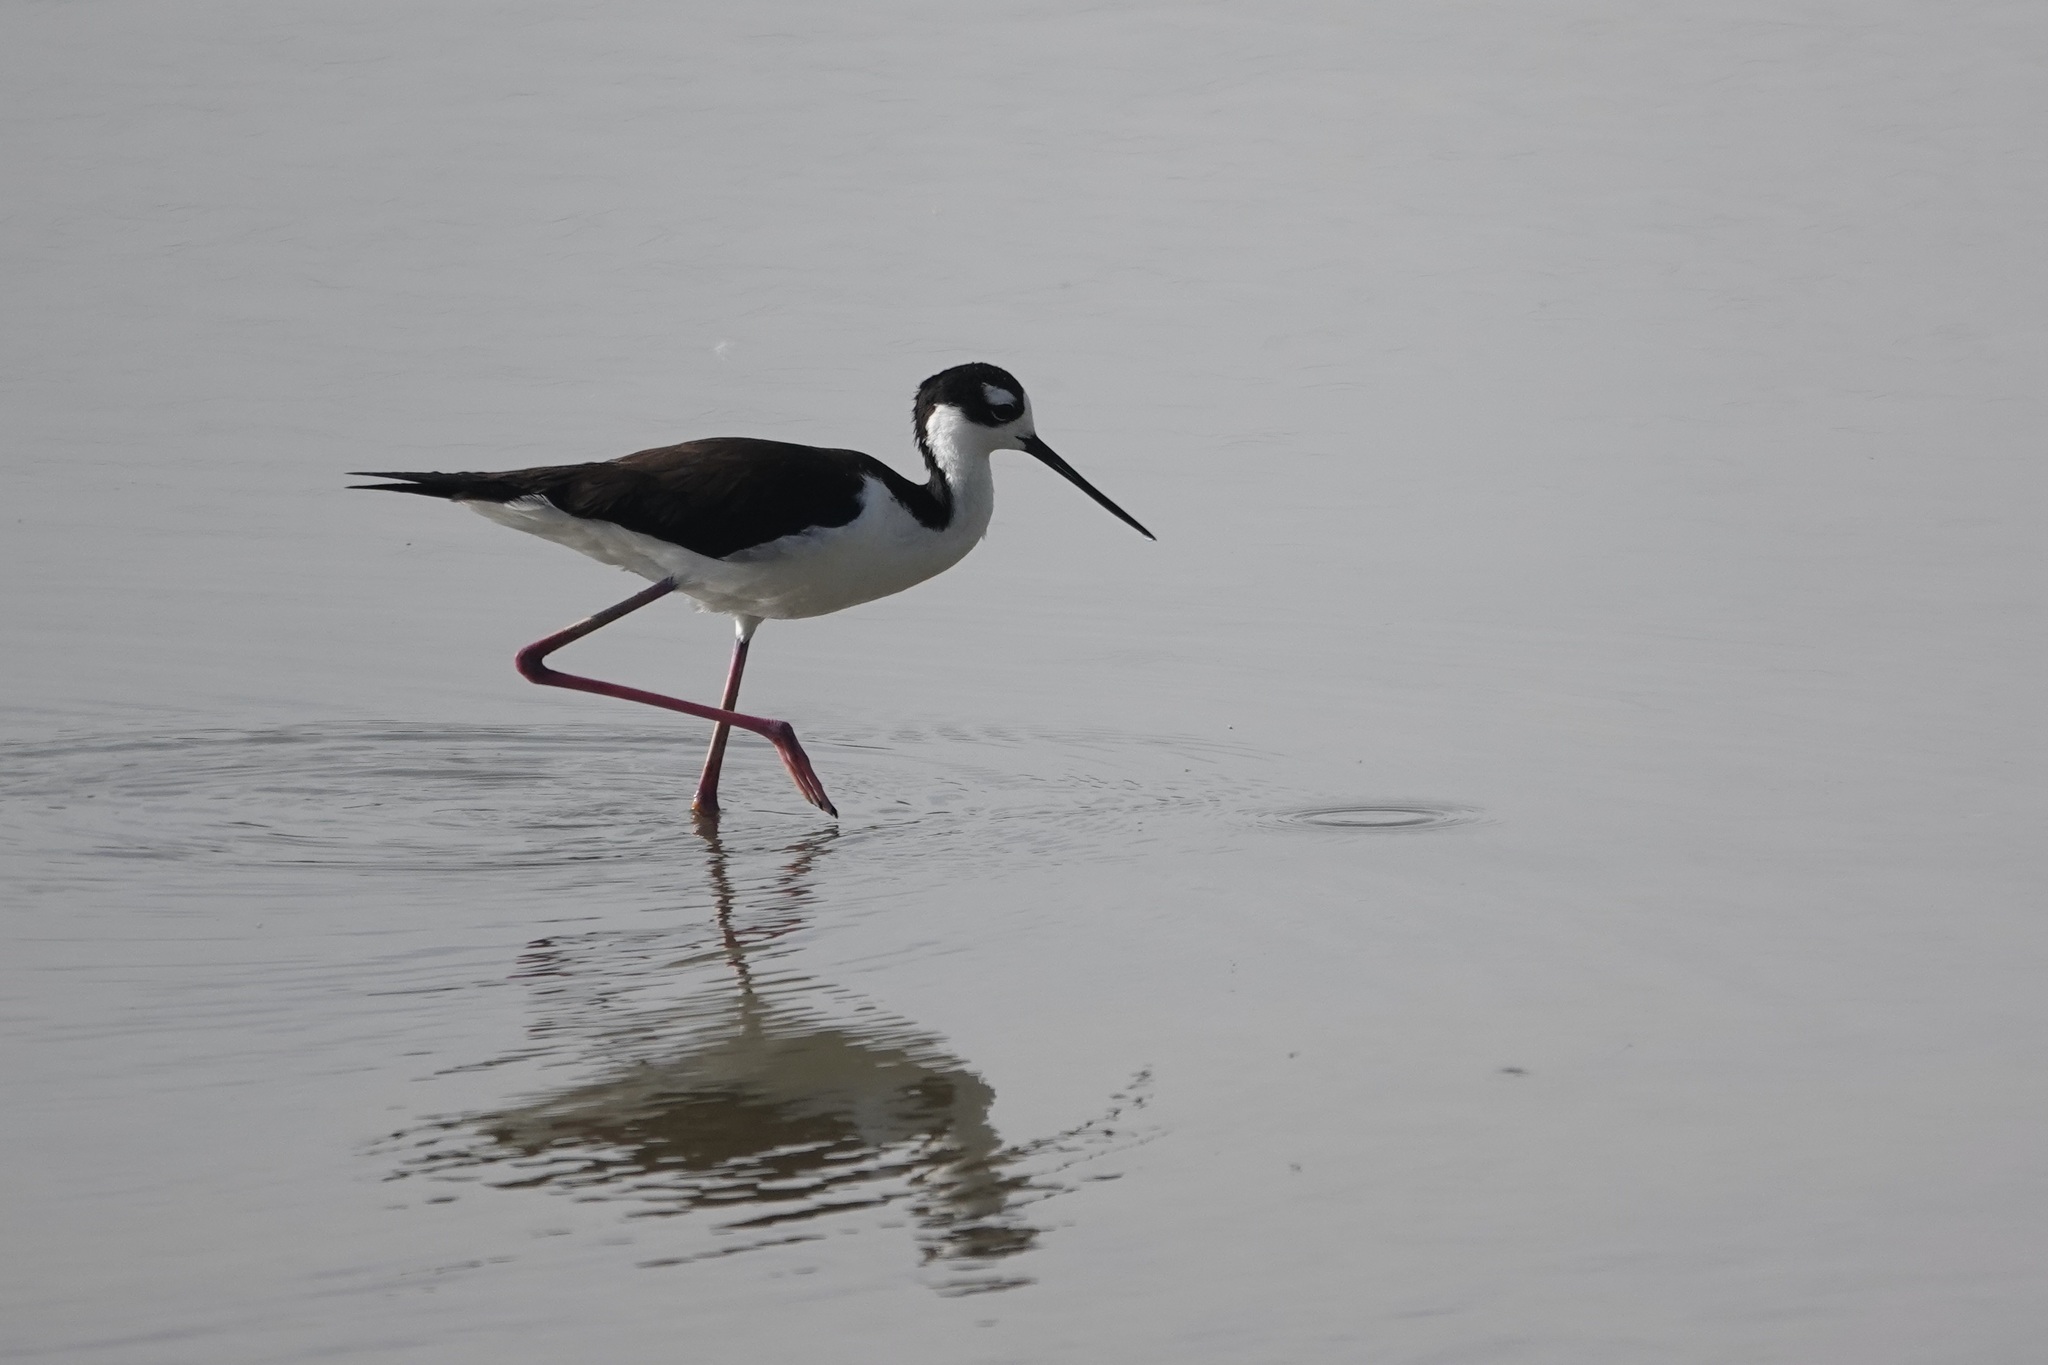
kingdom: Animalia
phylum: Chordata
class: Aves
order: Charadriiformes
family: Recurvirostridae
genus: Himantopus
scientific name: Himantopus mexicanus
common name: Black-necked stilt
